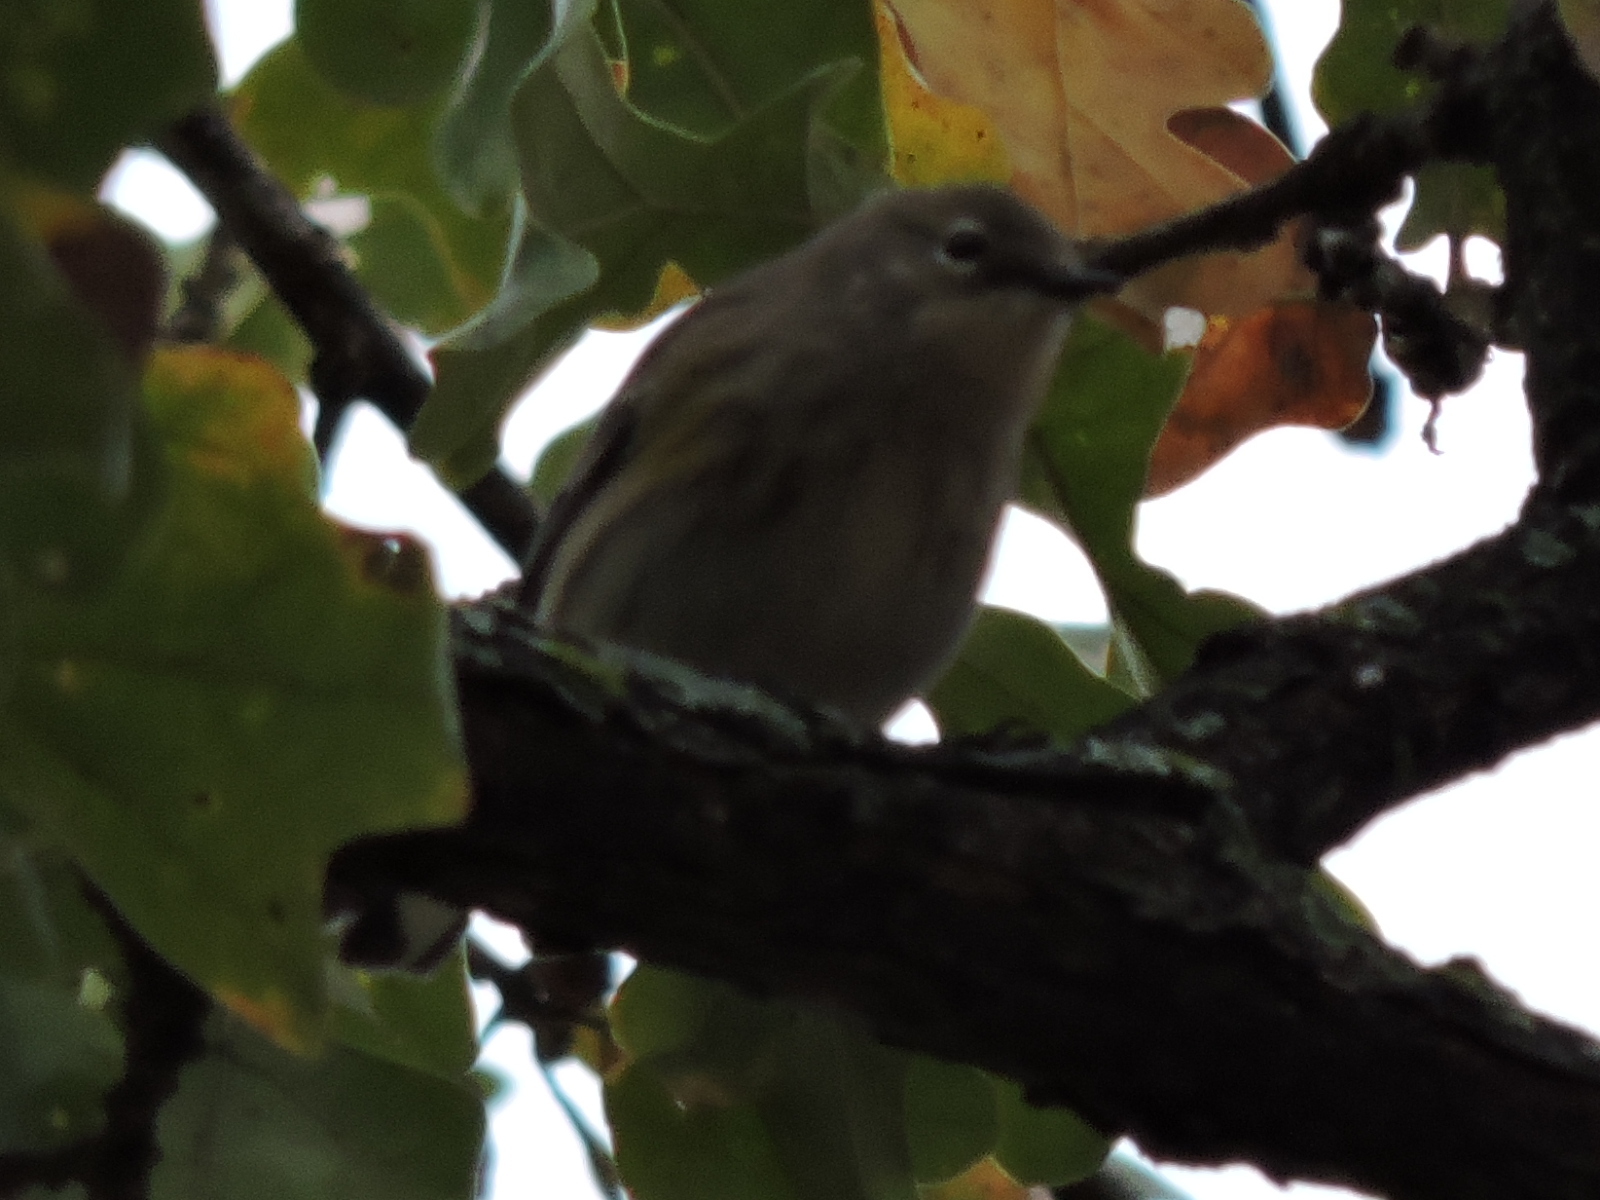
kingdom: Animalia
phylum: Chordata
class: Aves
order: Passeriformes
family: Parulidae
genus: Setophaga
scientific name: Setophaga coronata
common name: Myrtle warbler
